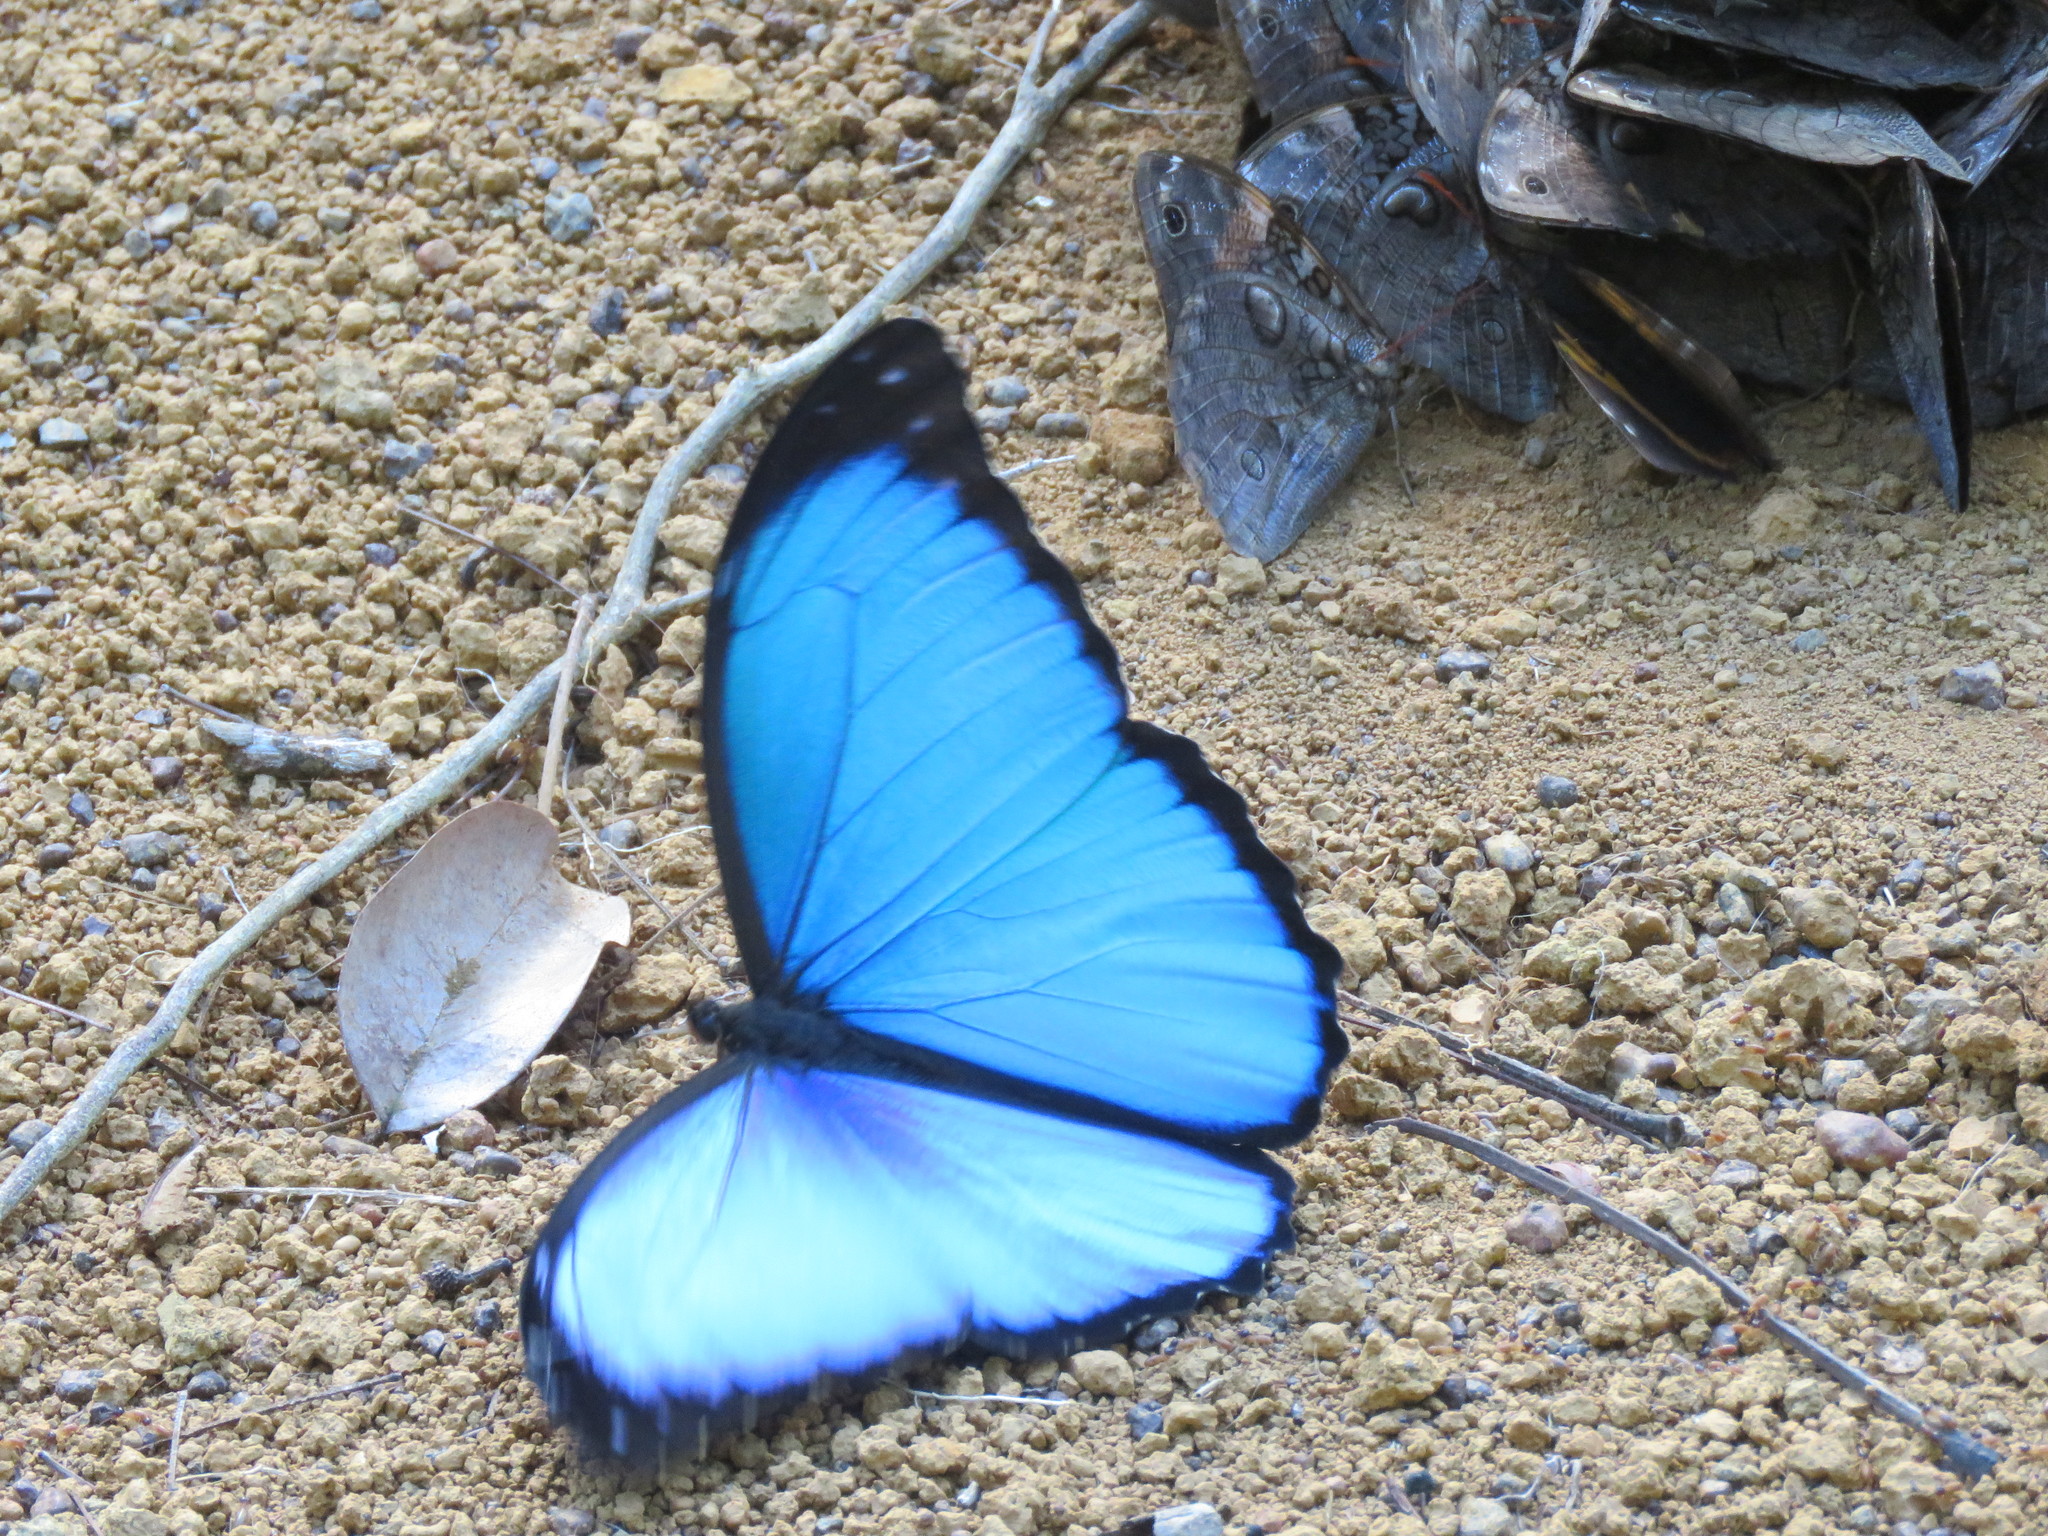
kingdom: Animalia
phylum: Arthropoda
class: Insecta
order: Lepidoptera
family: Nymphalidae
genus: Morpho
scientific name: Morpho menelaus
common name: Menelaus morpho
